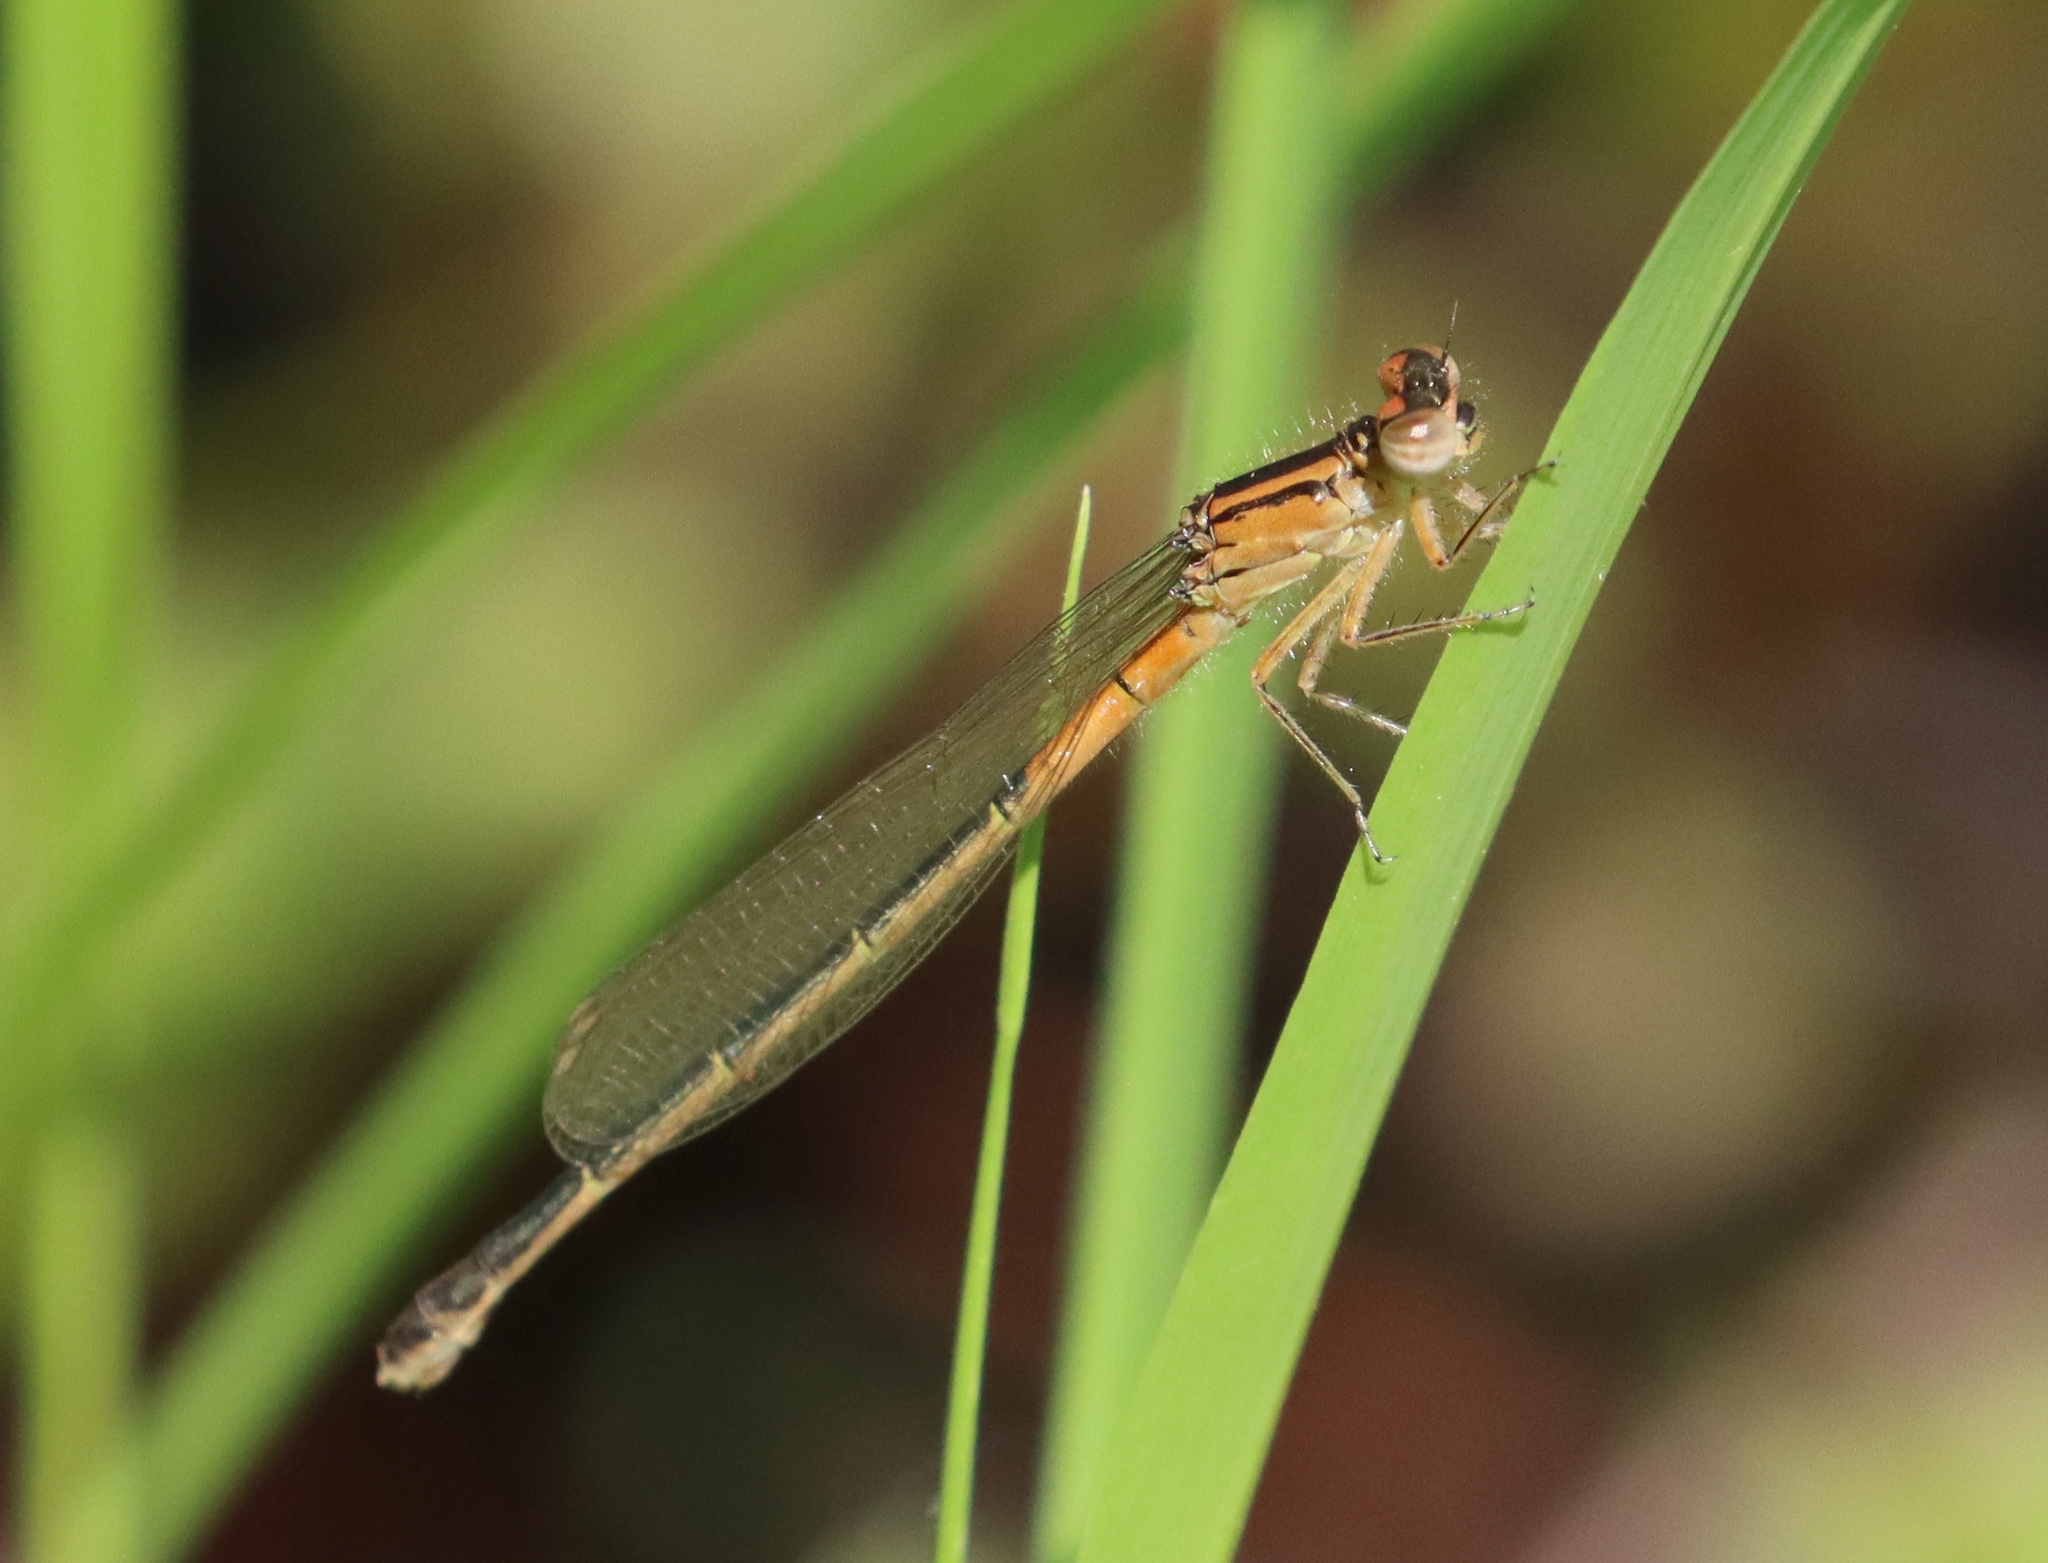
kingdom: Animalia
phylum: Arthropoda
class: Insecta
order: Odonata
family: Coenagrionidae
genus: Ischnura
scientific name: Ischnura verticalis
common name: Eastern forktail
